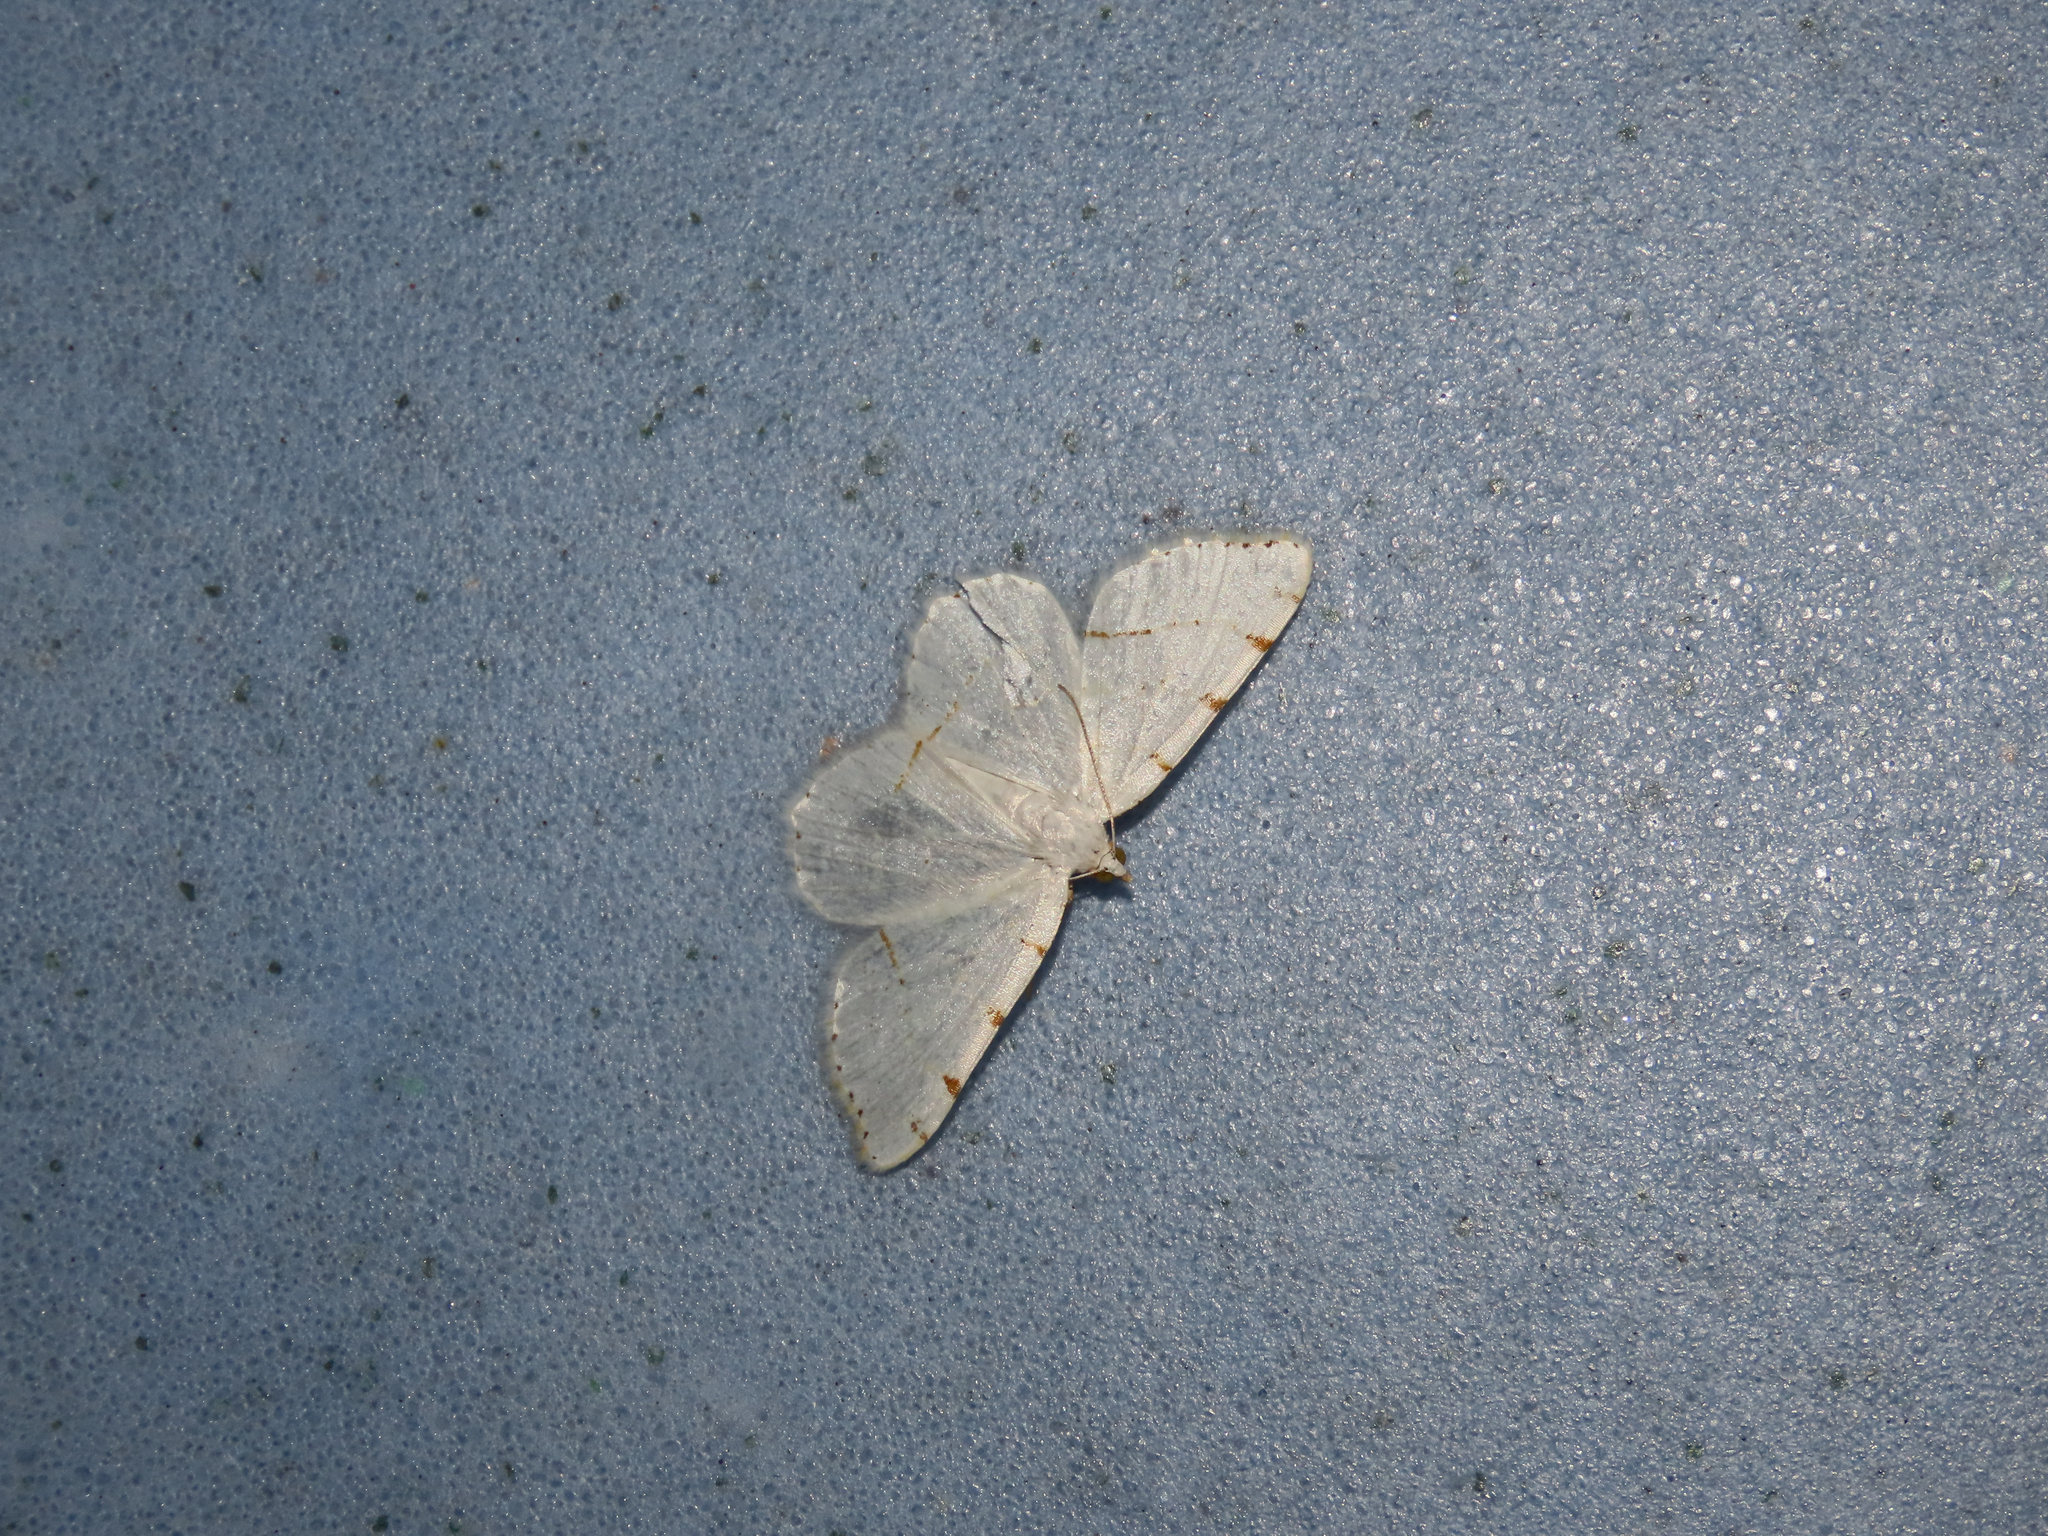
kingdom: Animalia
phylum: Arthropoda
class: Insecta
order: Lepidoptera
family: Geometridae
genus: Macaria
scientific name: Macaria pustularia
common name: Lesser maple spanworm moth
